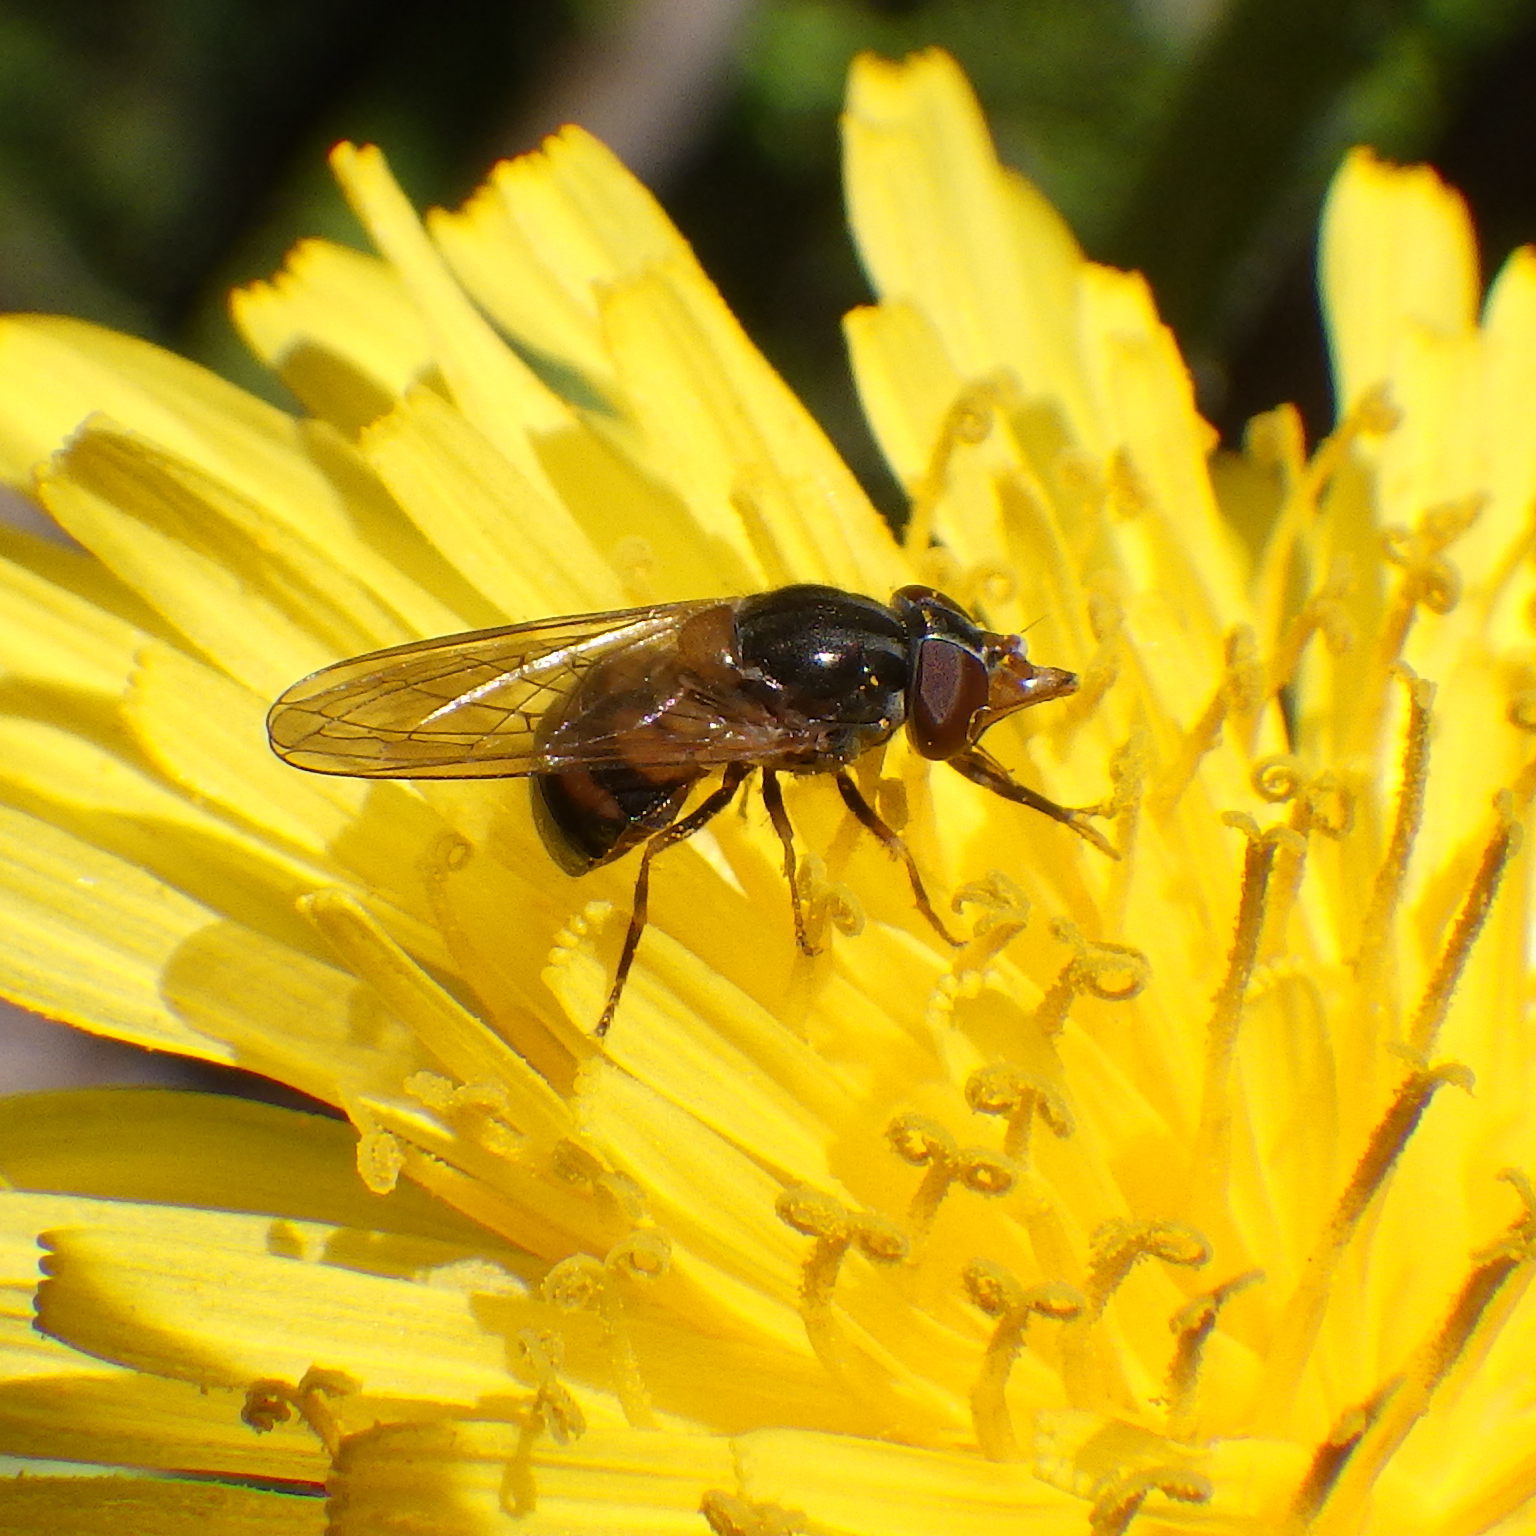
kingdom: Animalia
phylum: Arthropoda
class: Insecta
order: Diptera
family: Syrphidae
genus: Rhingia
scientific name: Rhingia nasica
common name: American snout fly
